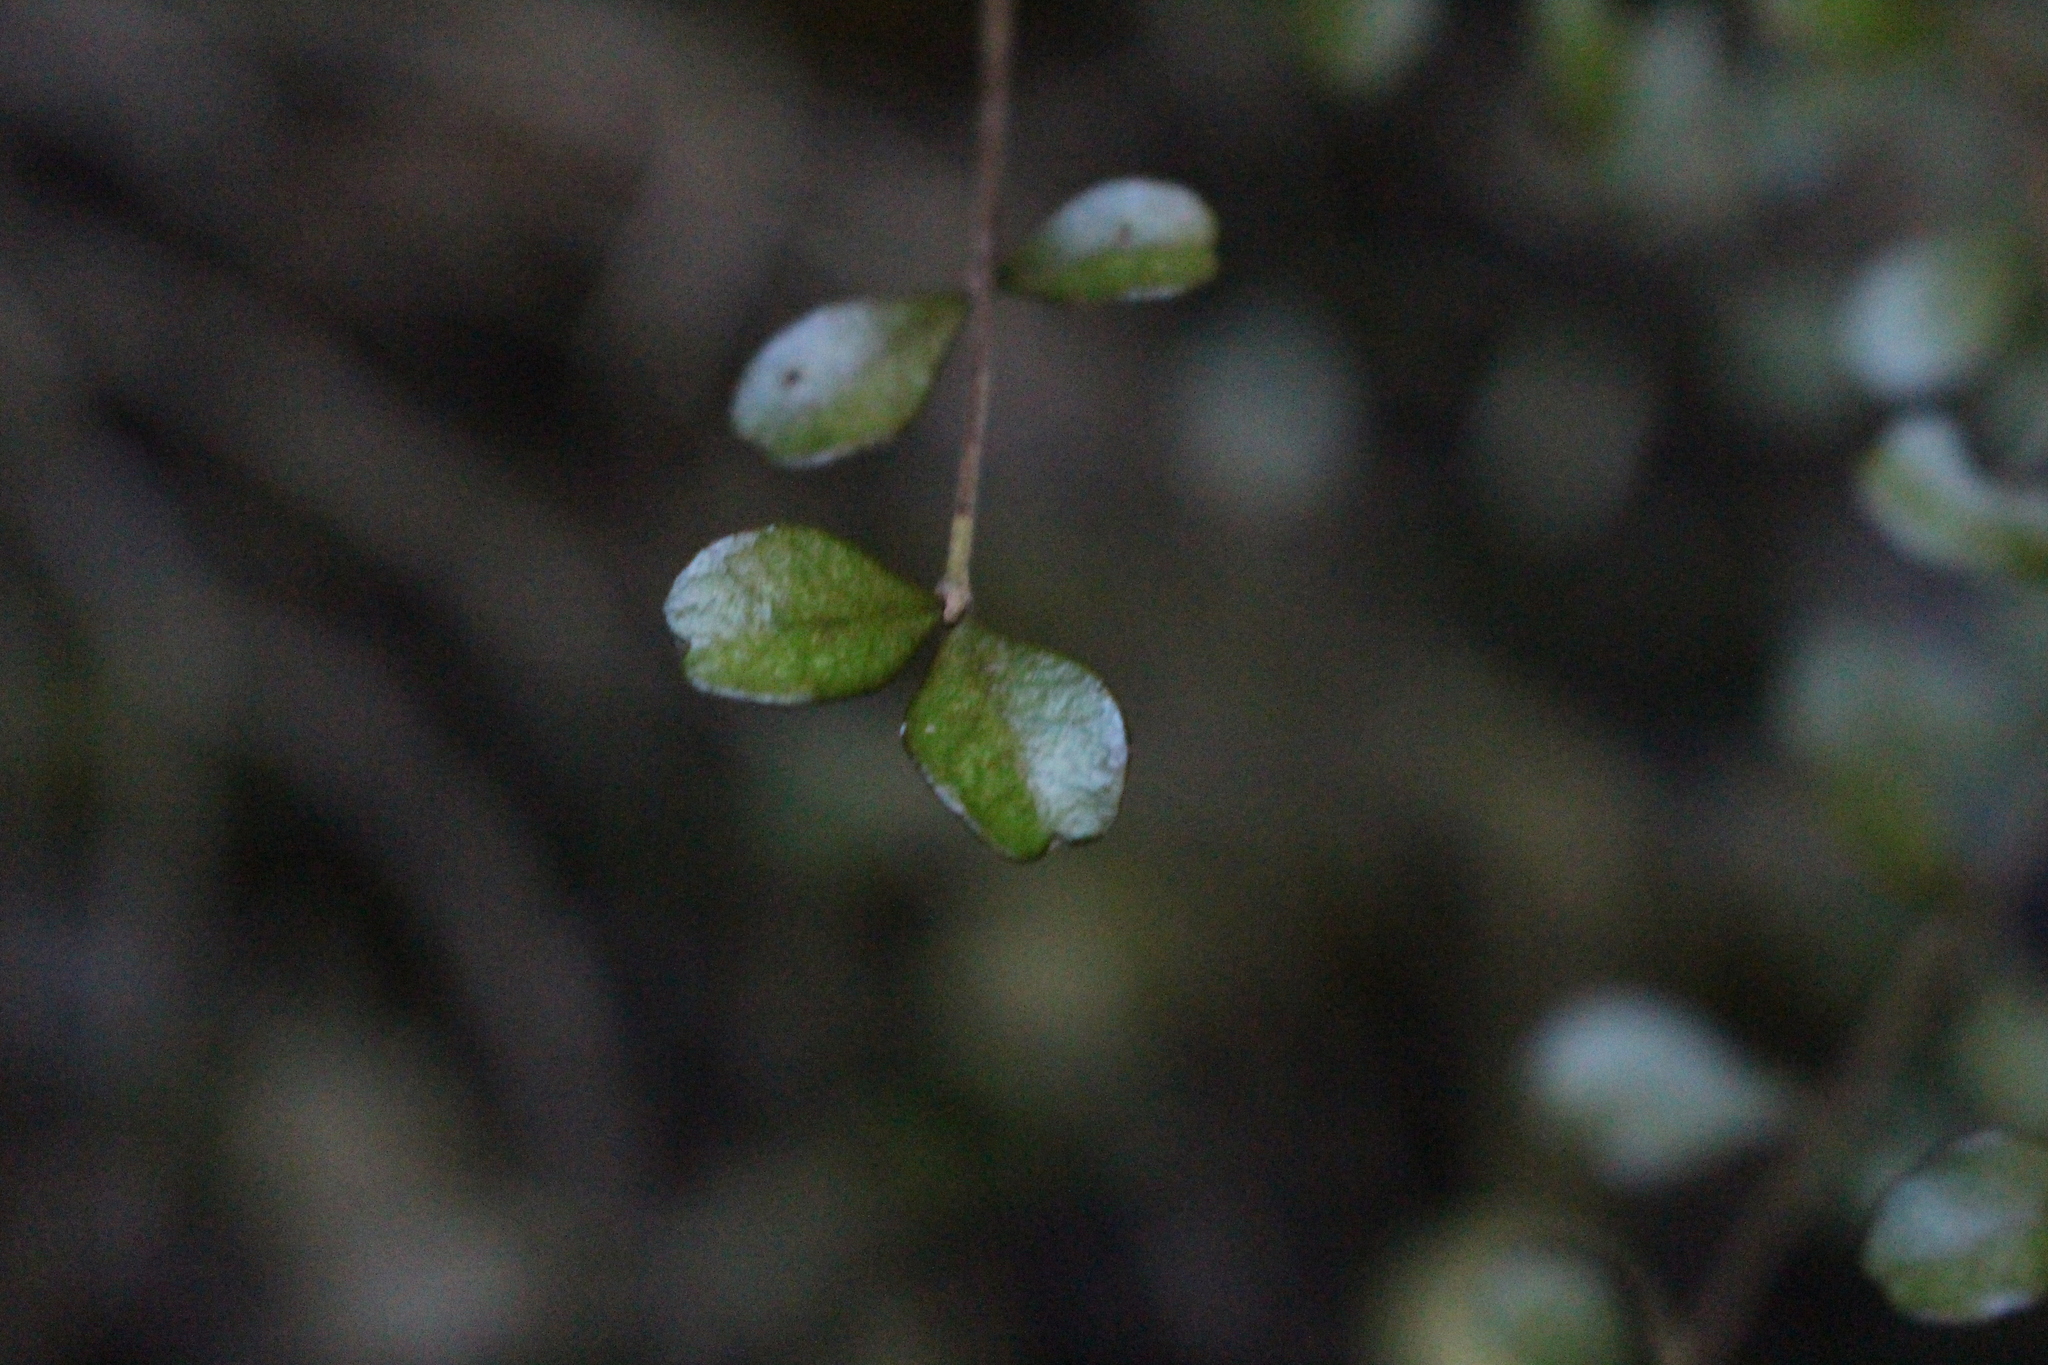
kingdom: Plantae
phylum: Tracheophyta
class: Magnoliopsida
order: Myrtales
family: Myrtaceae
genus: Lophomyrtus
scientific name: Lophomyrtus obcordata
